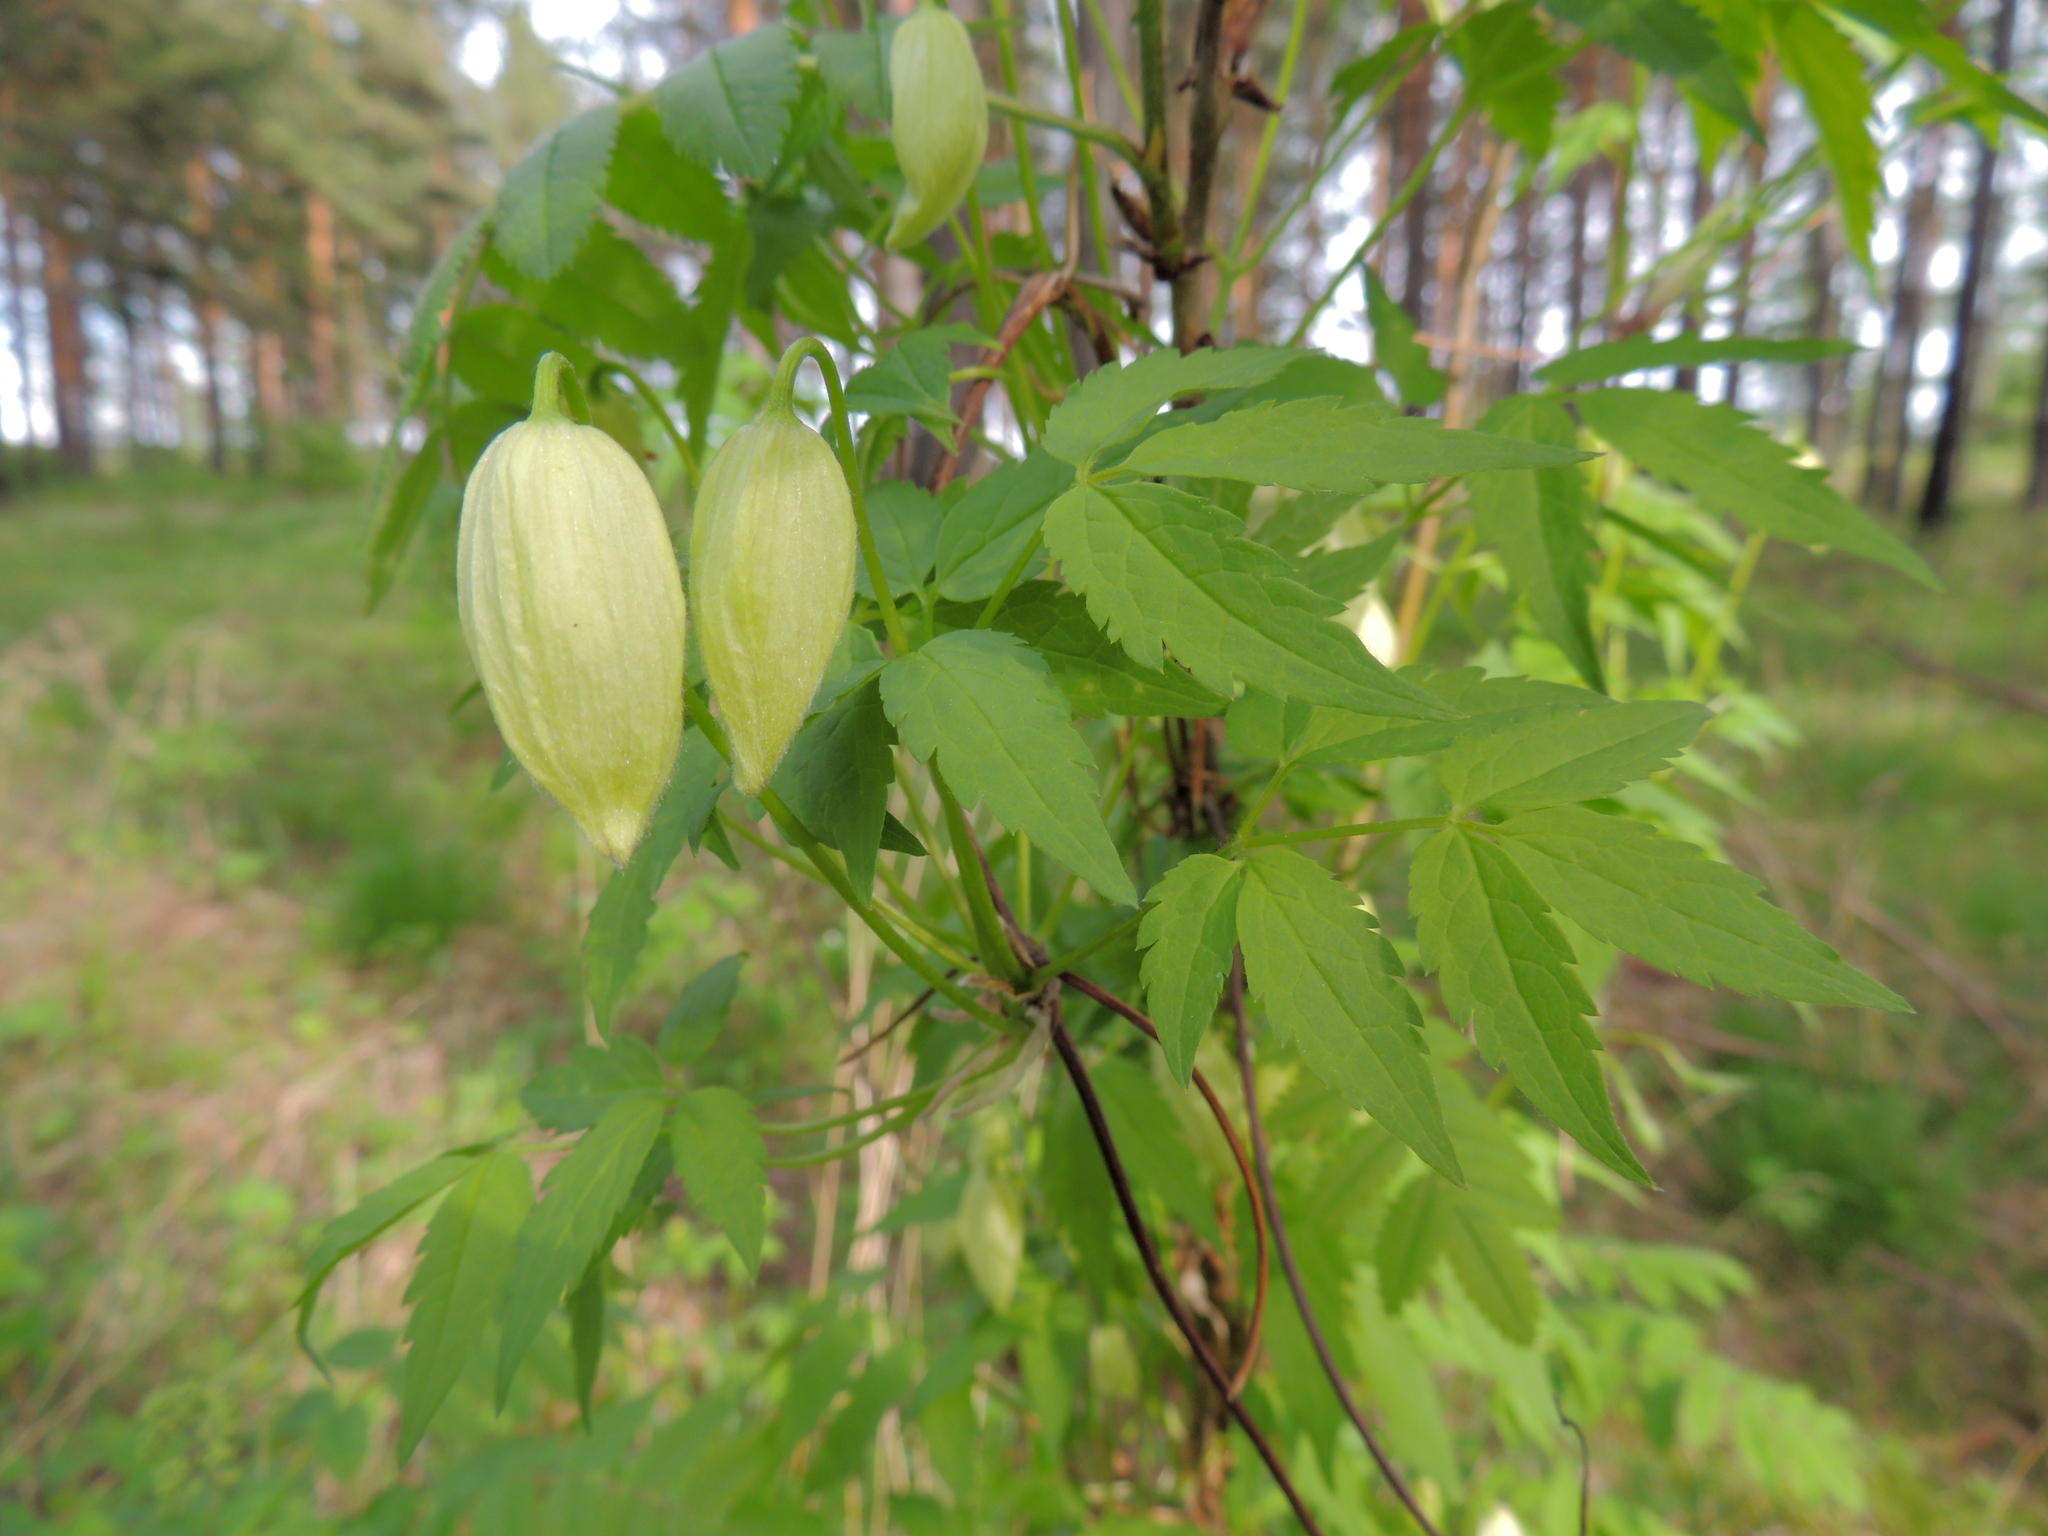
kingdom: Plantae
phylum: Tracheophyta
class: Magnoliopsida
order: Ranunculales
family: Ranunculaceae
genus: Clematis
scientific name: Clematis sibirica
